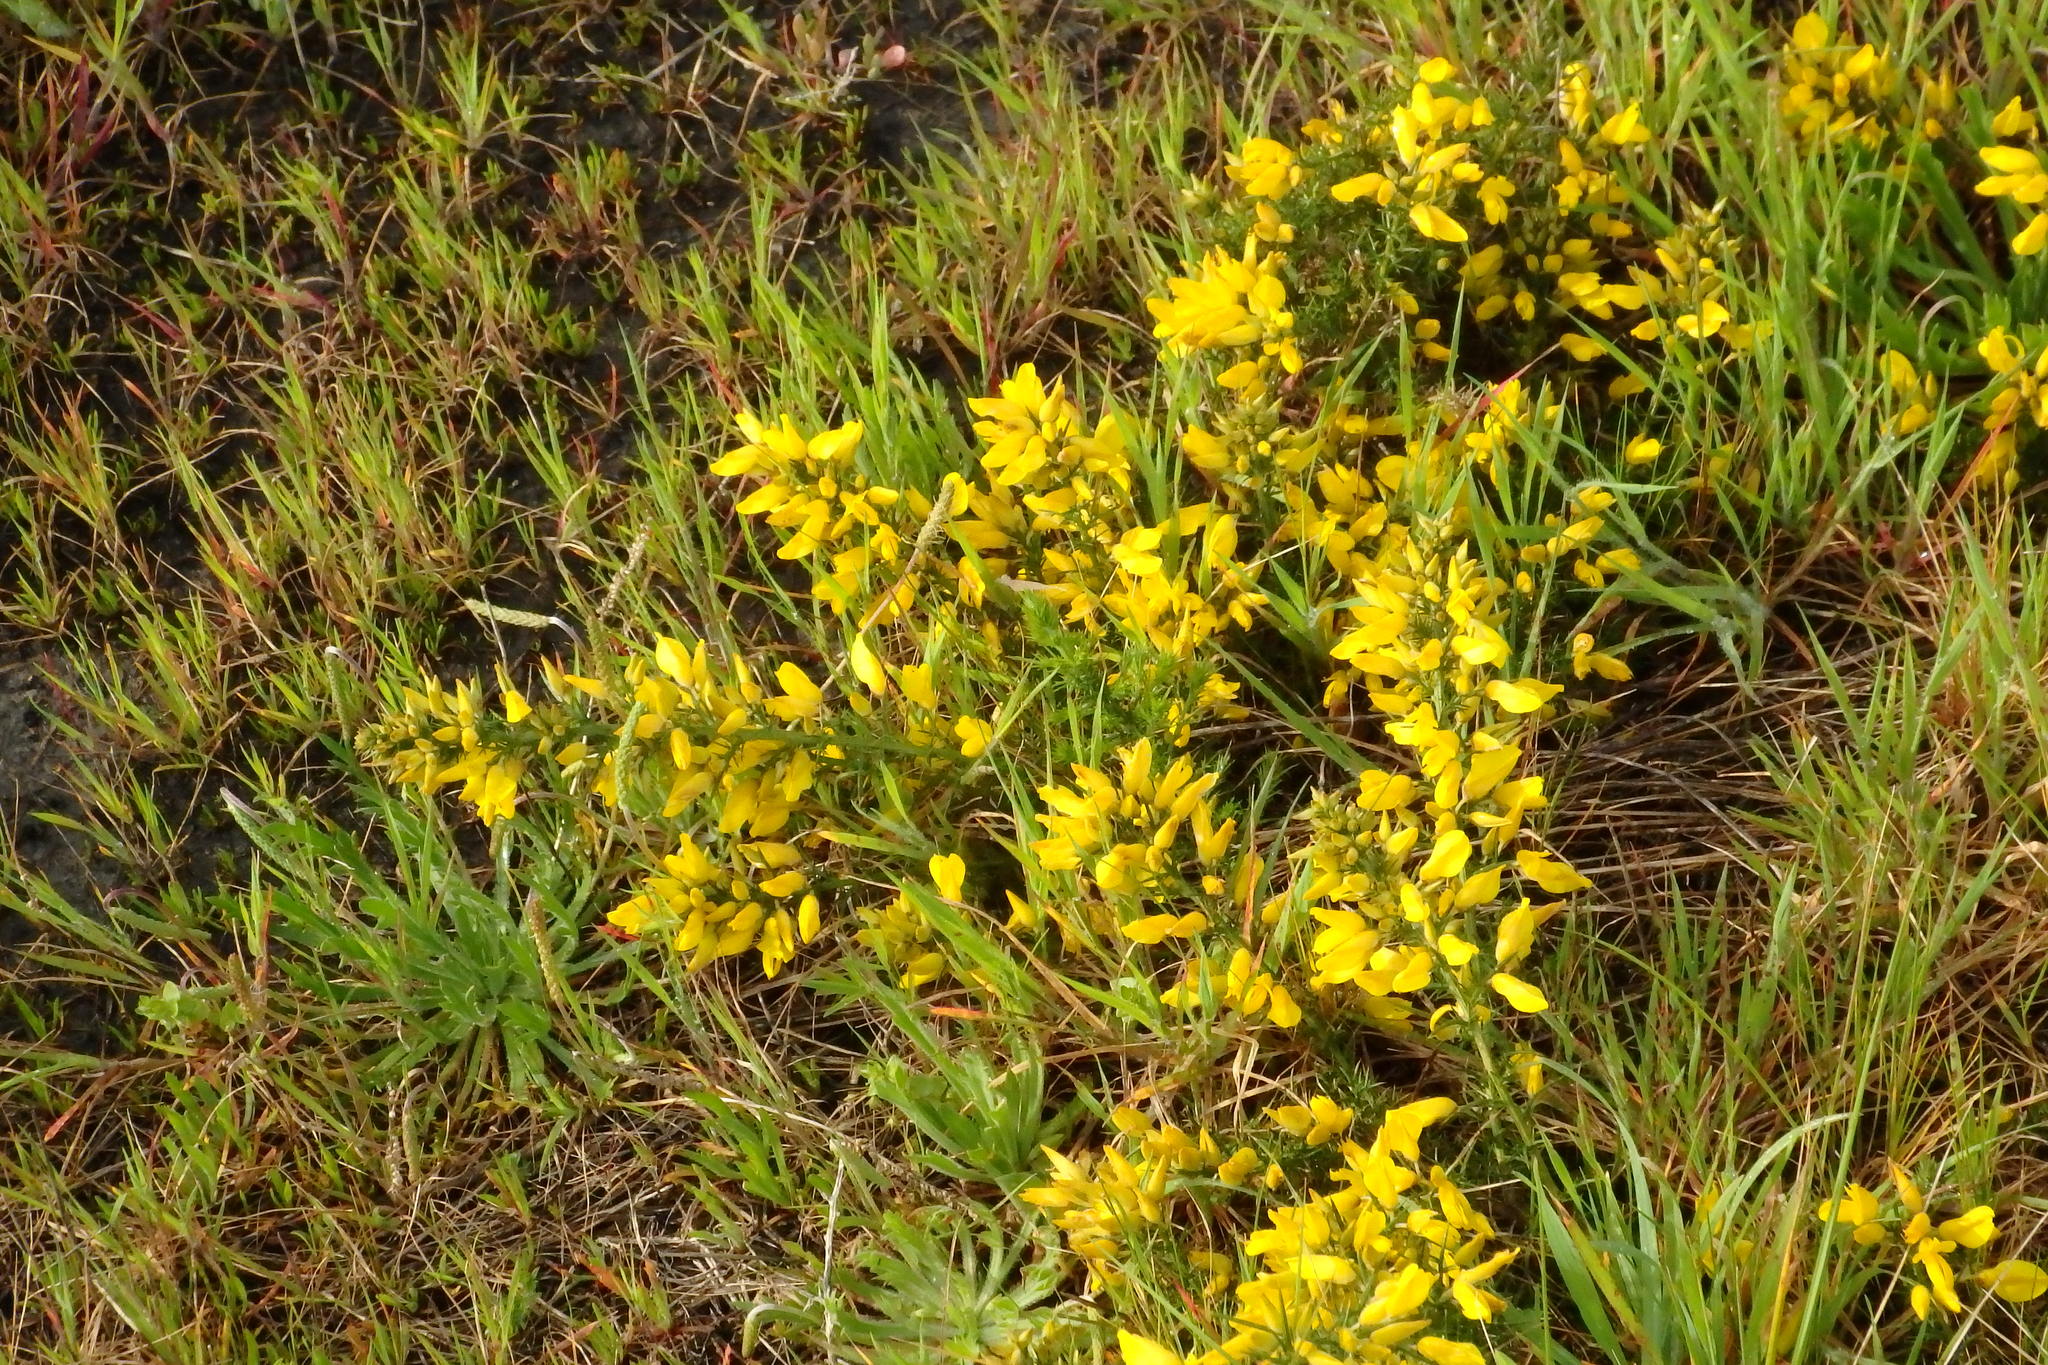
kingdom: Plantae
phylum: Tracheophyta
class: Magnoliopsida
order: Fabales
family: Fabaceae
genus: Ulex
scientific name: Ulex europaeus
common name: Common gorse
